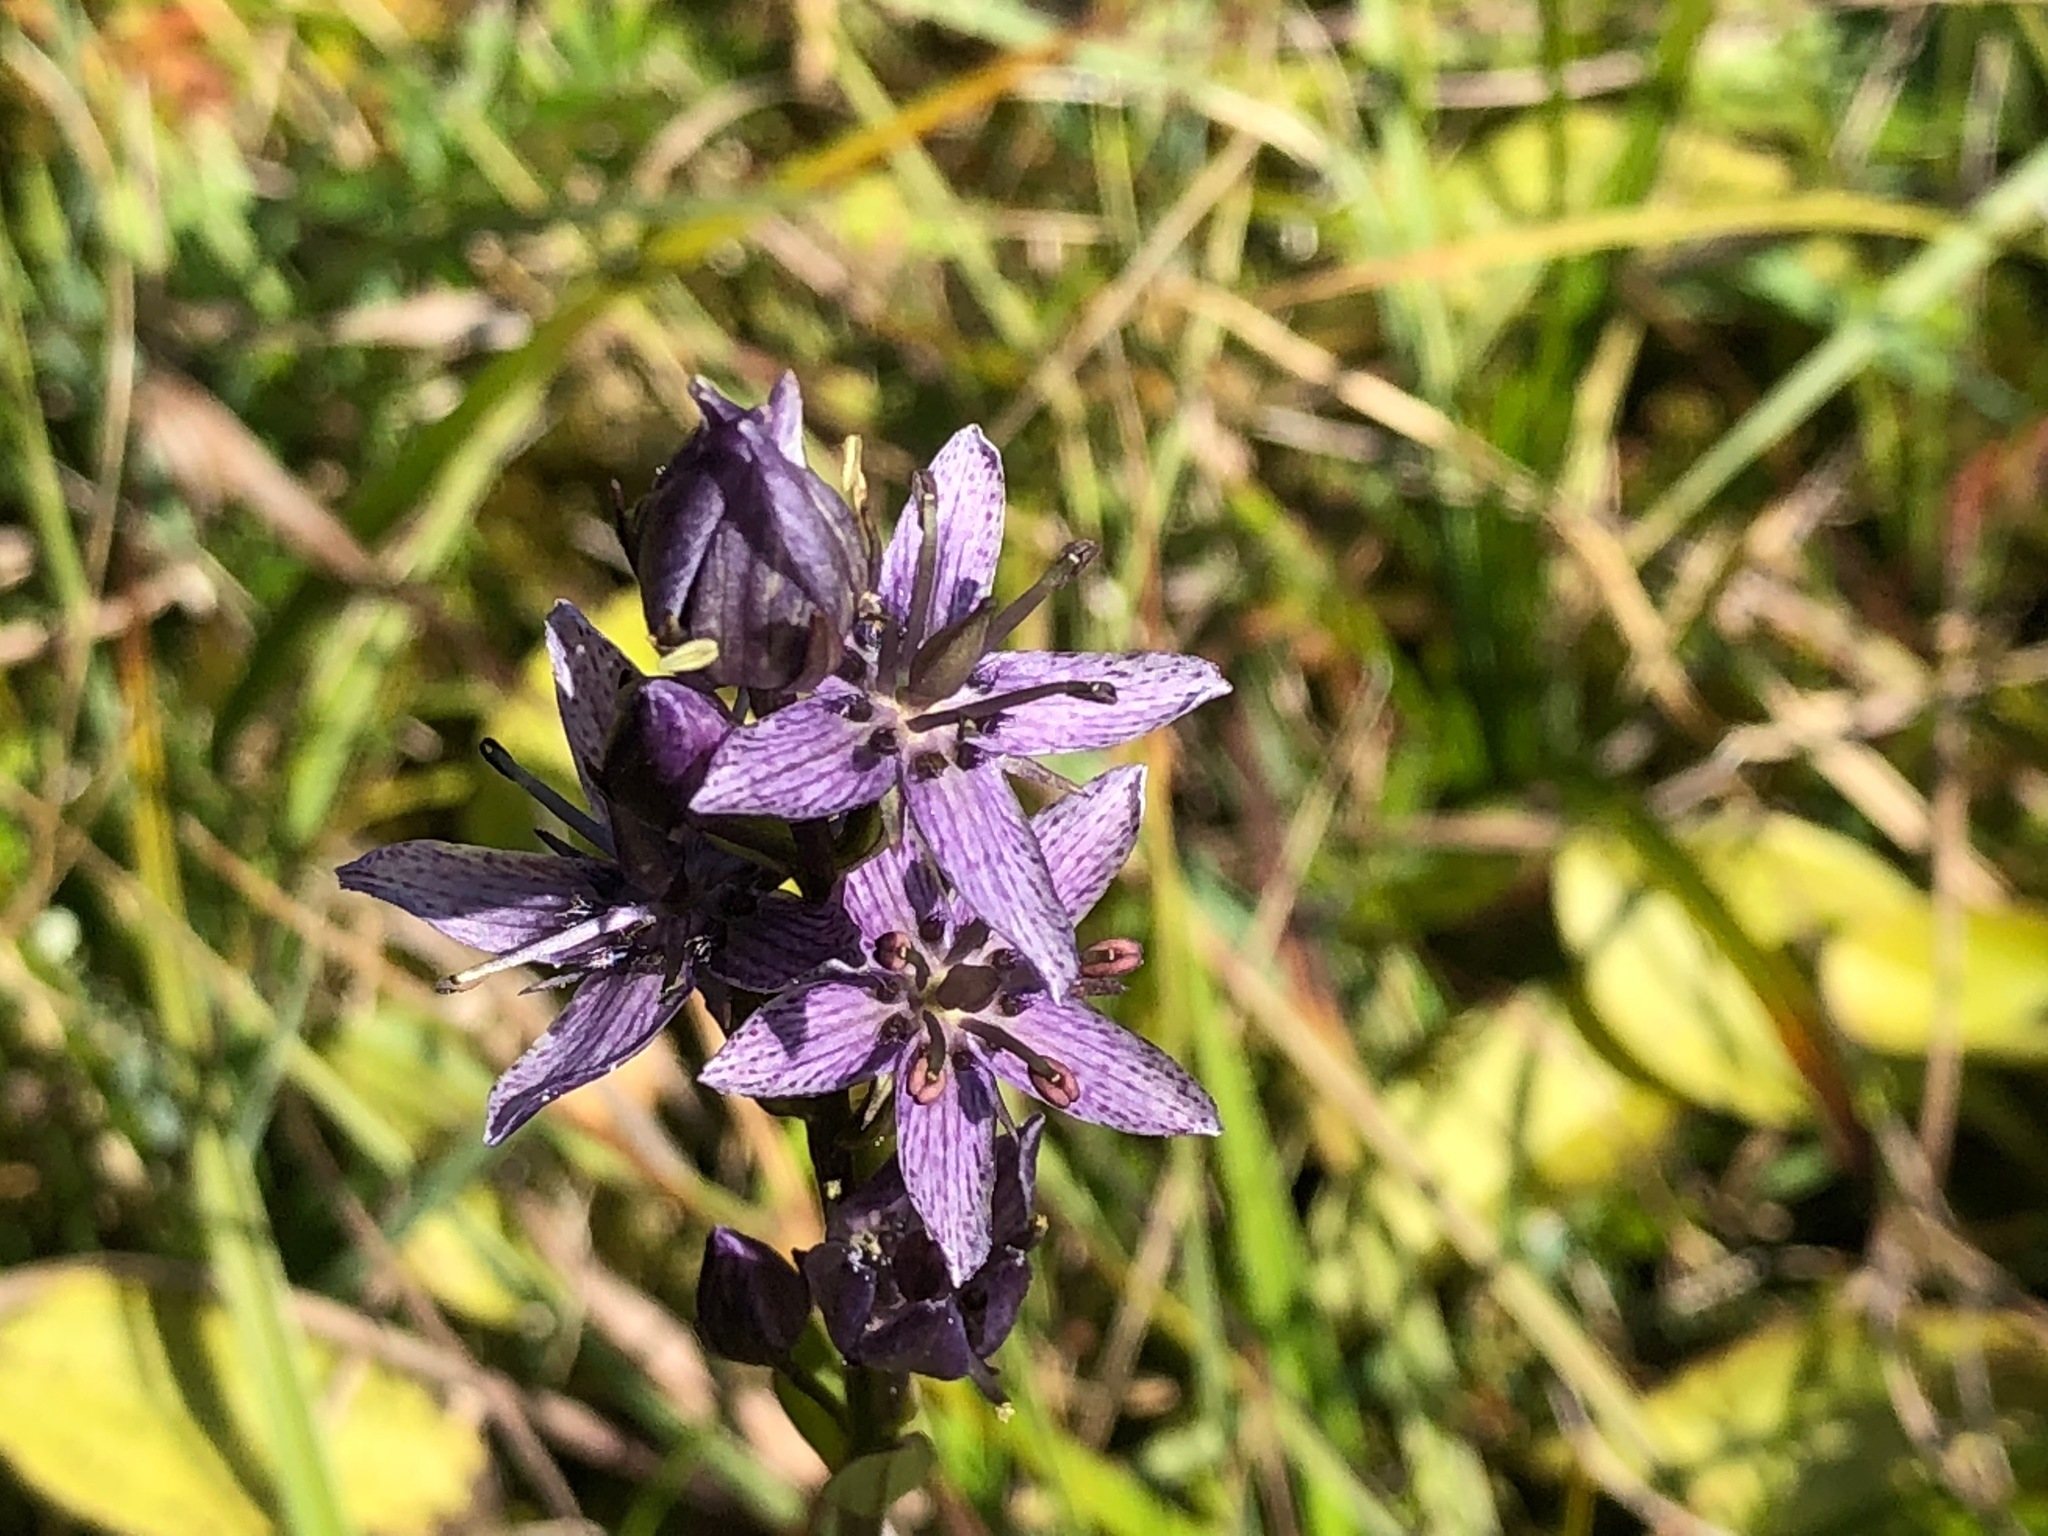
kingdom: Plantae
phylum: Tracheophyta
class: Magnoliopsida
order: Gentianales
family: Gentianaceae
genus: Swertia
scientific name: Swertia perennis
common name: Alpine bog swertia
